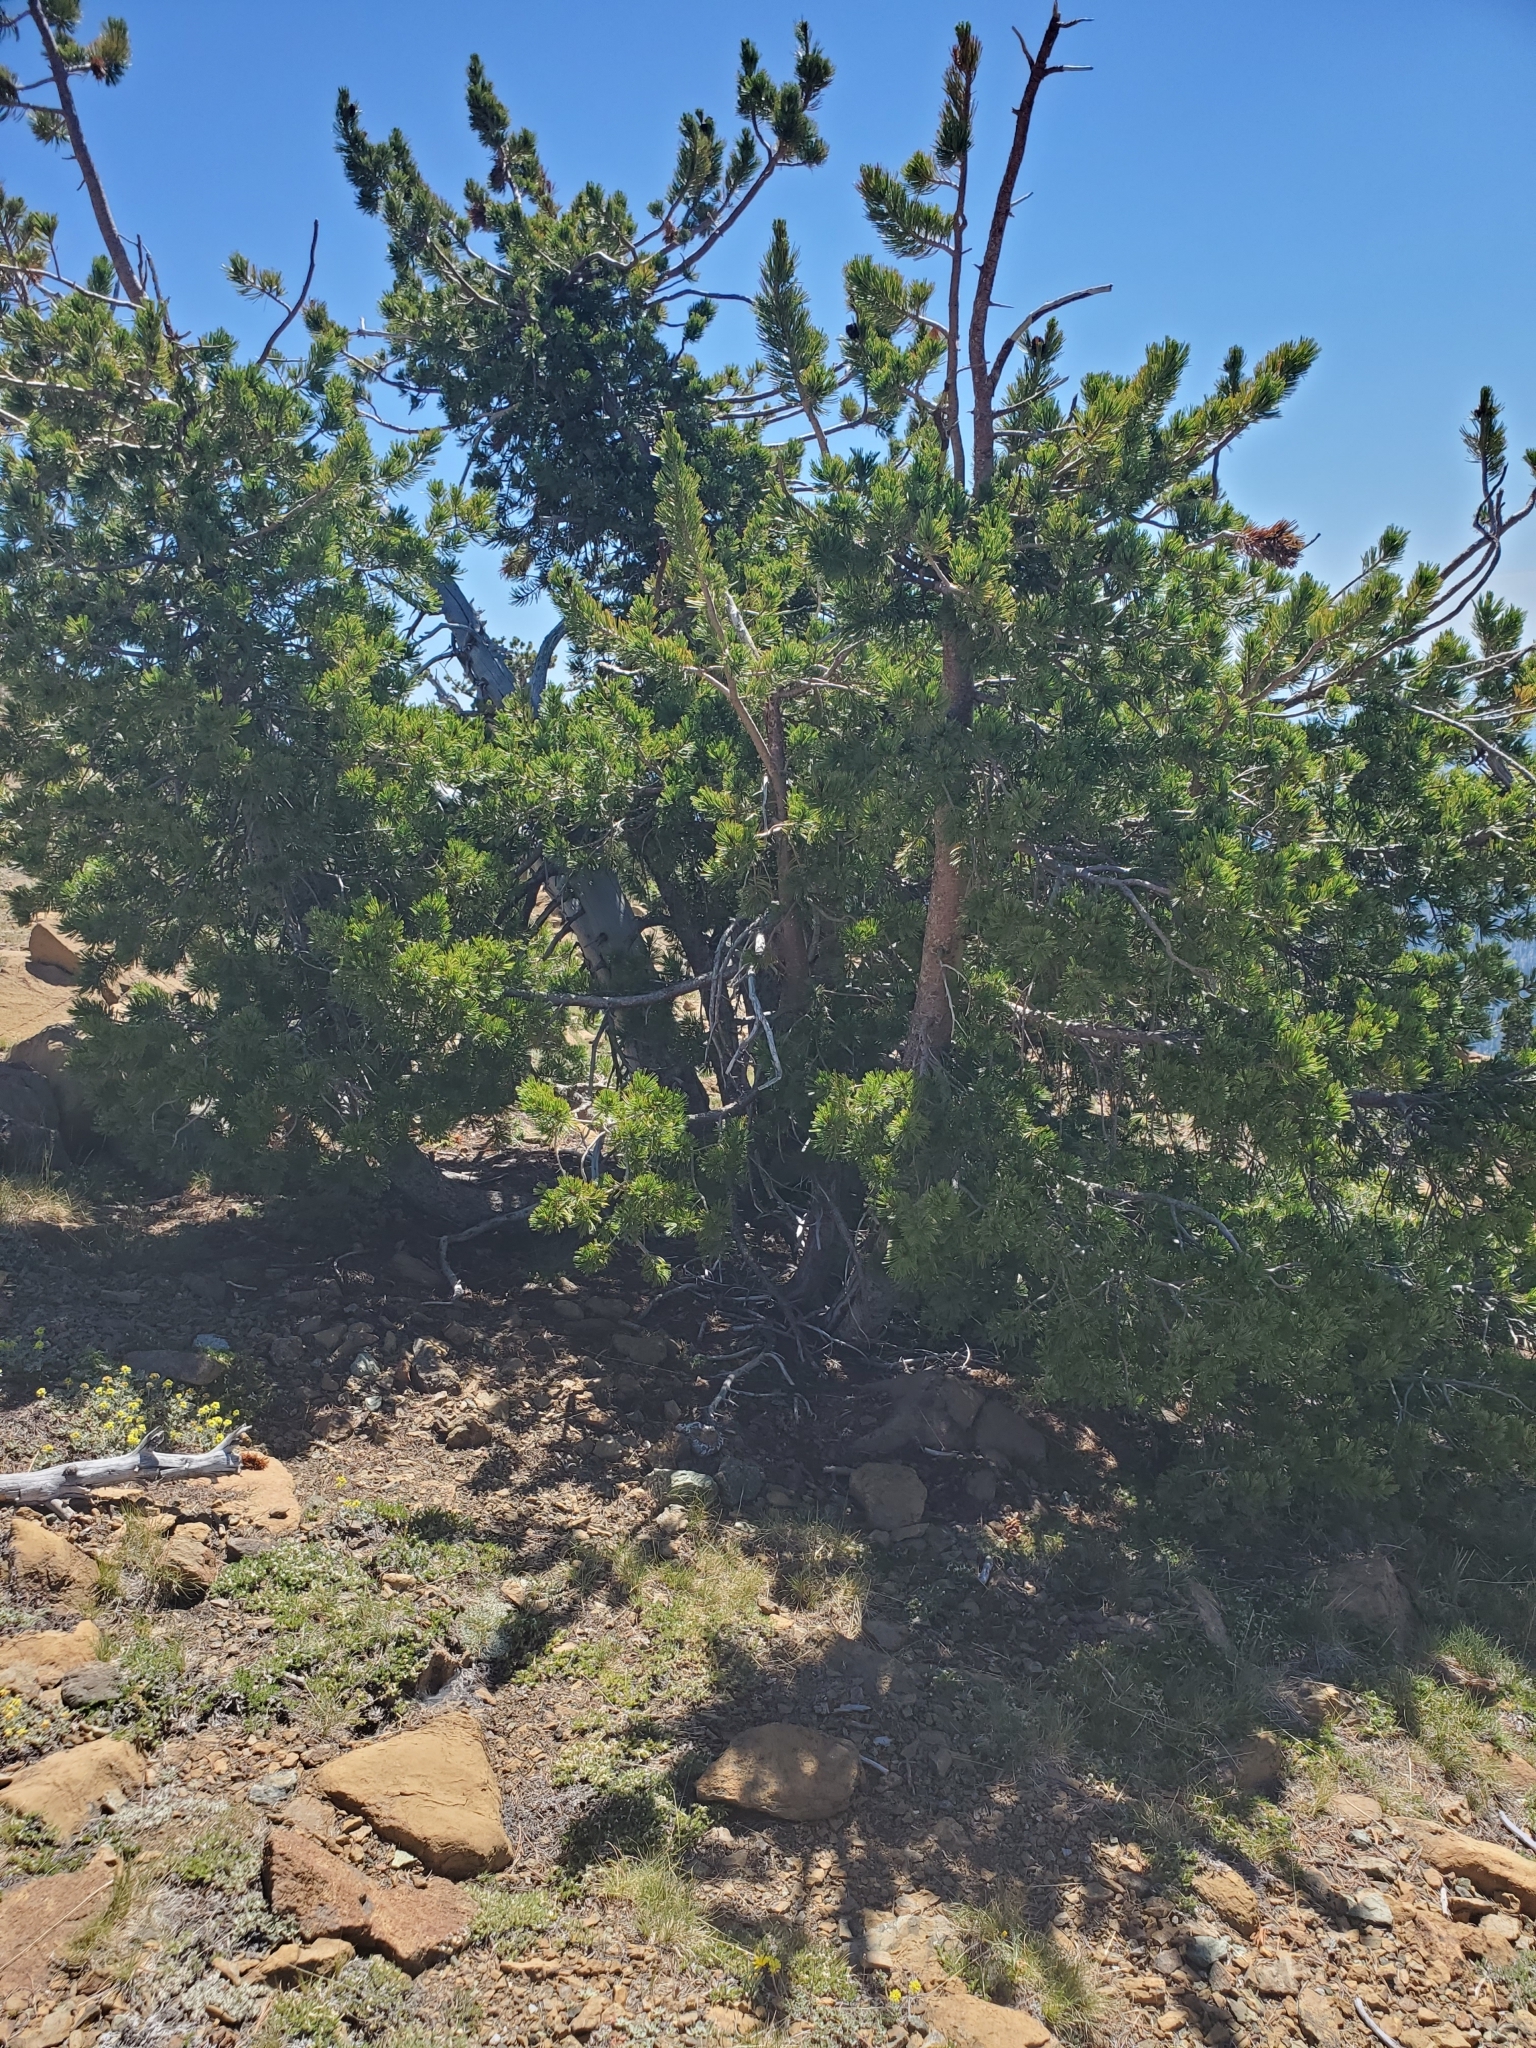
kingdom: Plantae
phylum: Tracheophyta
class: Pinopsida
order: Pinales
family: Pinaceae
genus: Pinus
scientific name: Pinus albicaulis
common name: Whitebark pine
